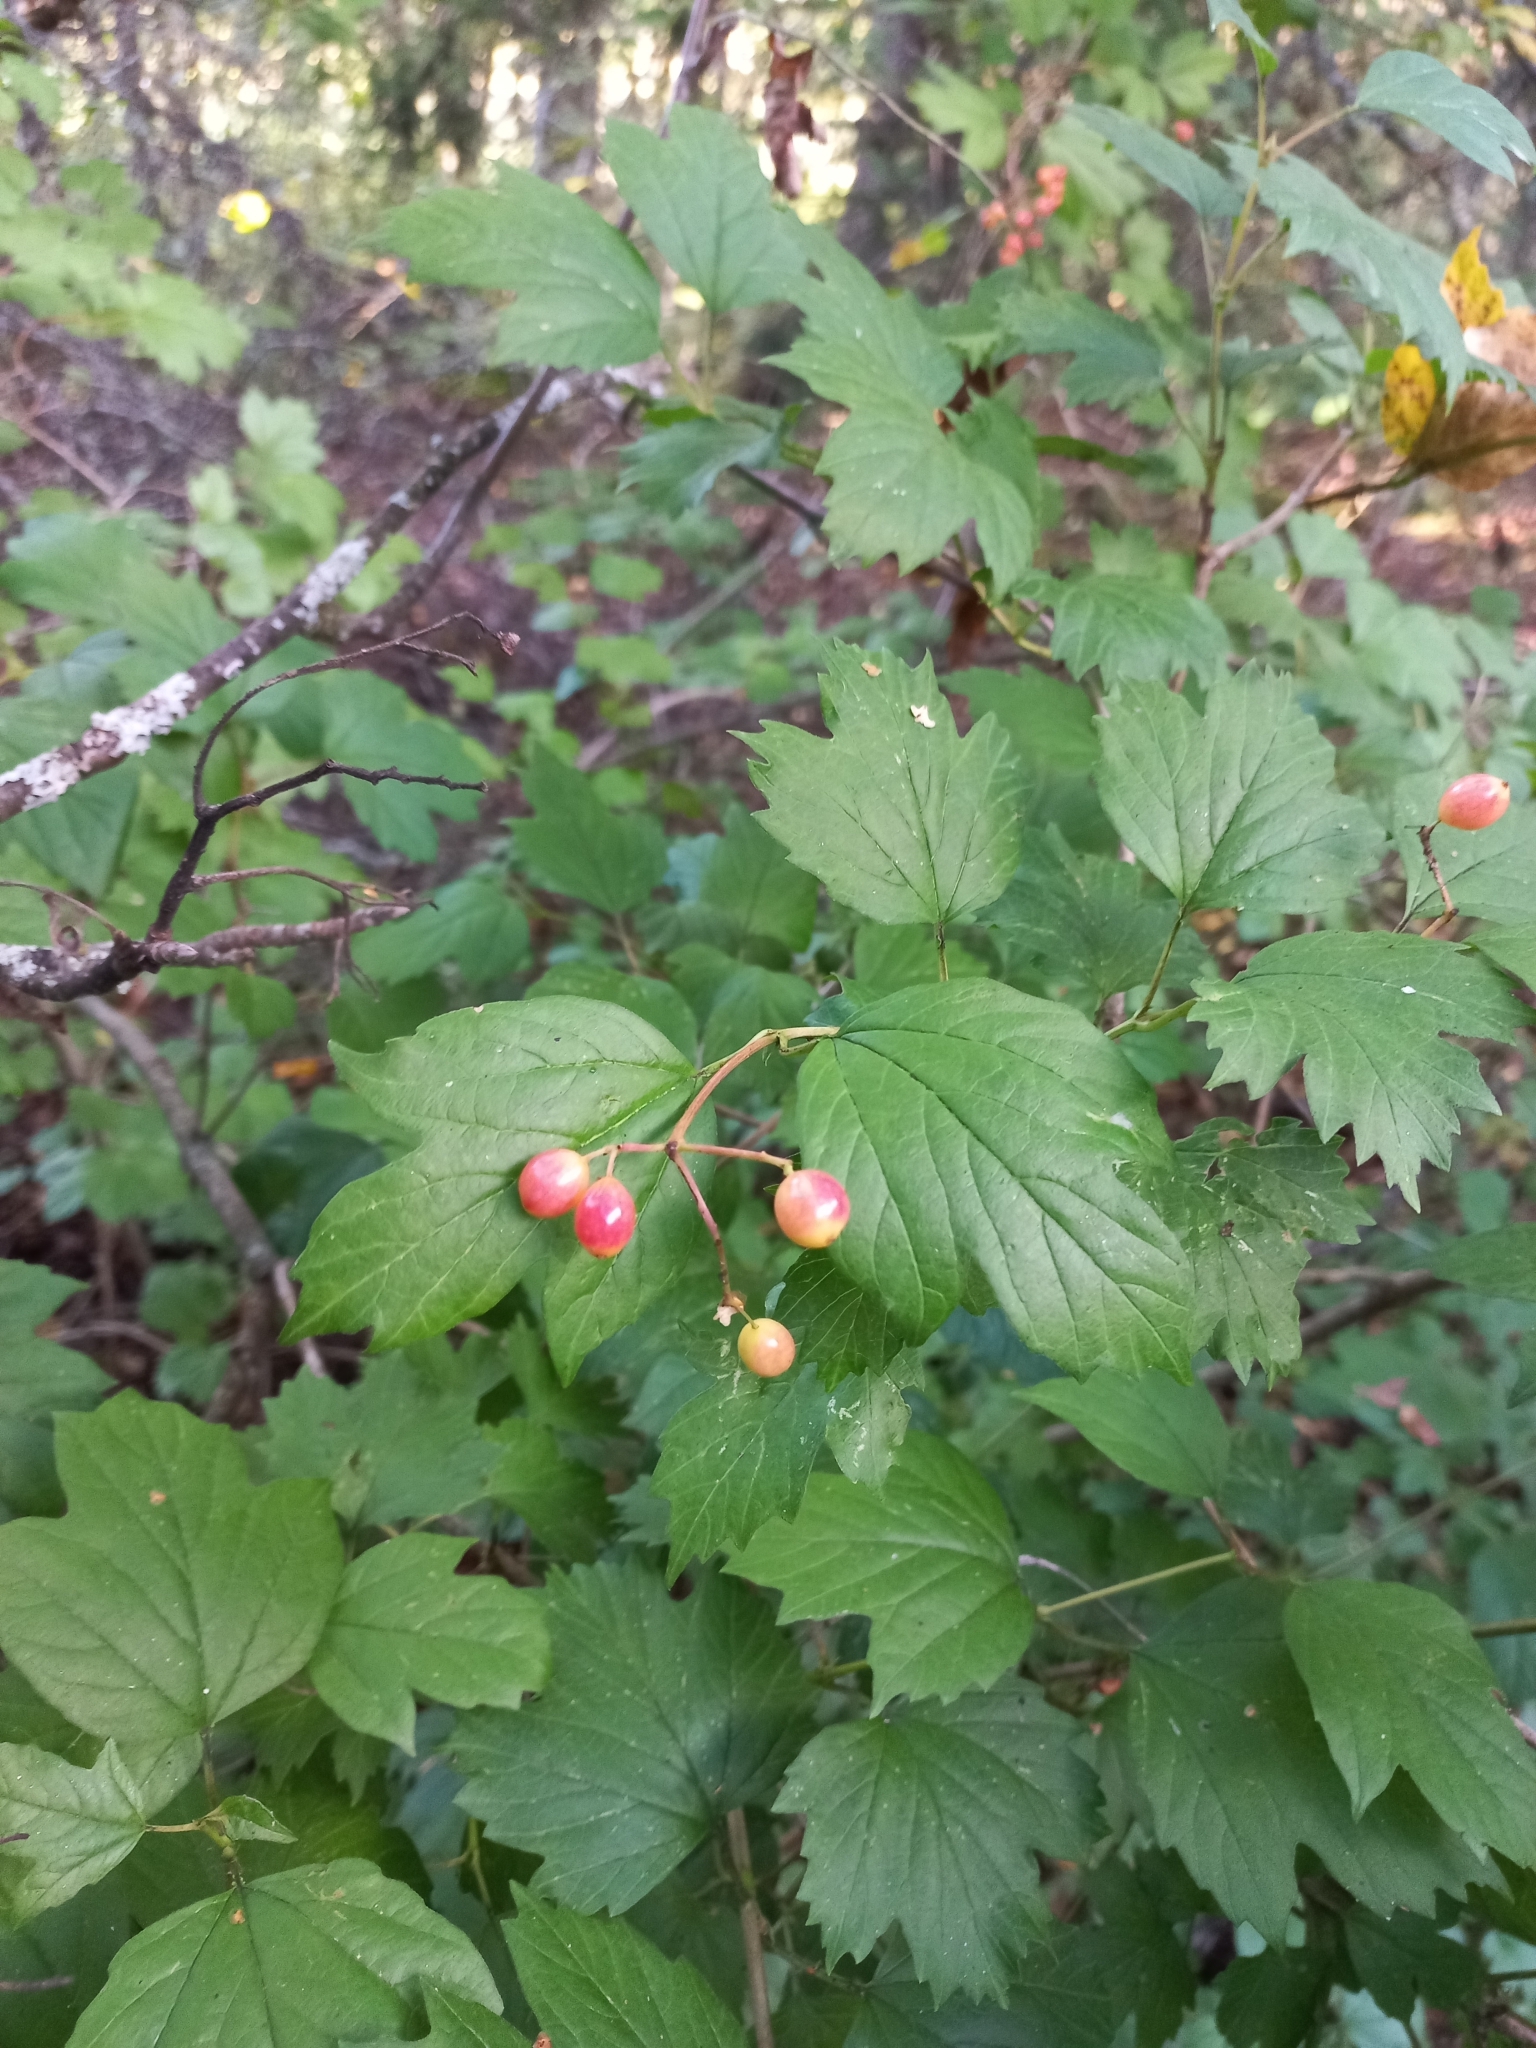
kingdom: Plantae
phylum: Tracheophyta
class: Magnoliopsida
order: Dipsacales
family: Viburnaceae
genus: Viburnum
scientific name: Viburnum opulus
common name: Guelder-rose
